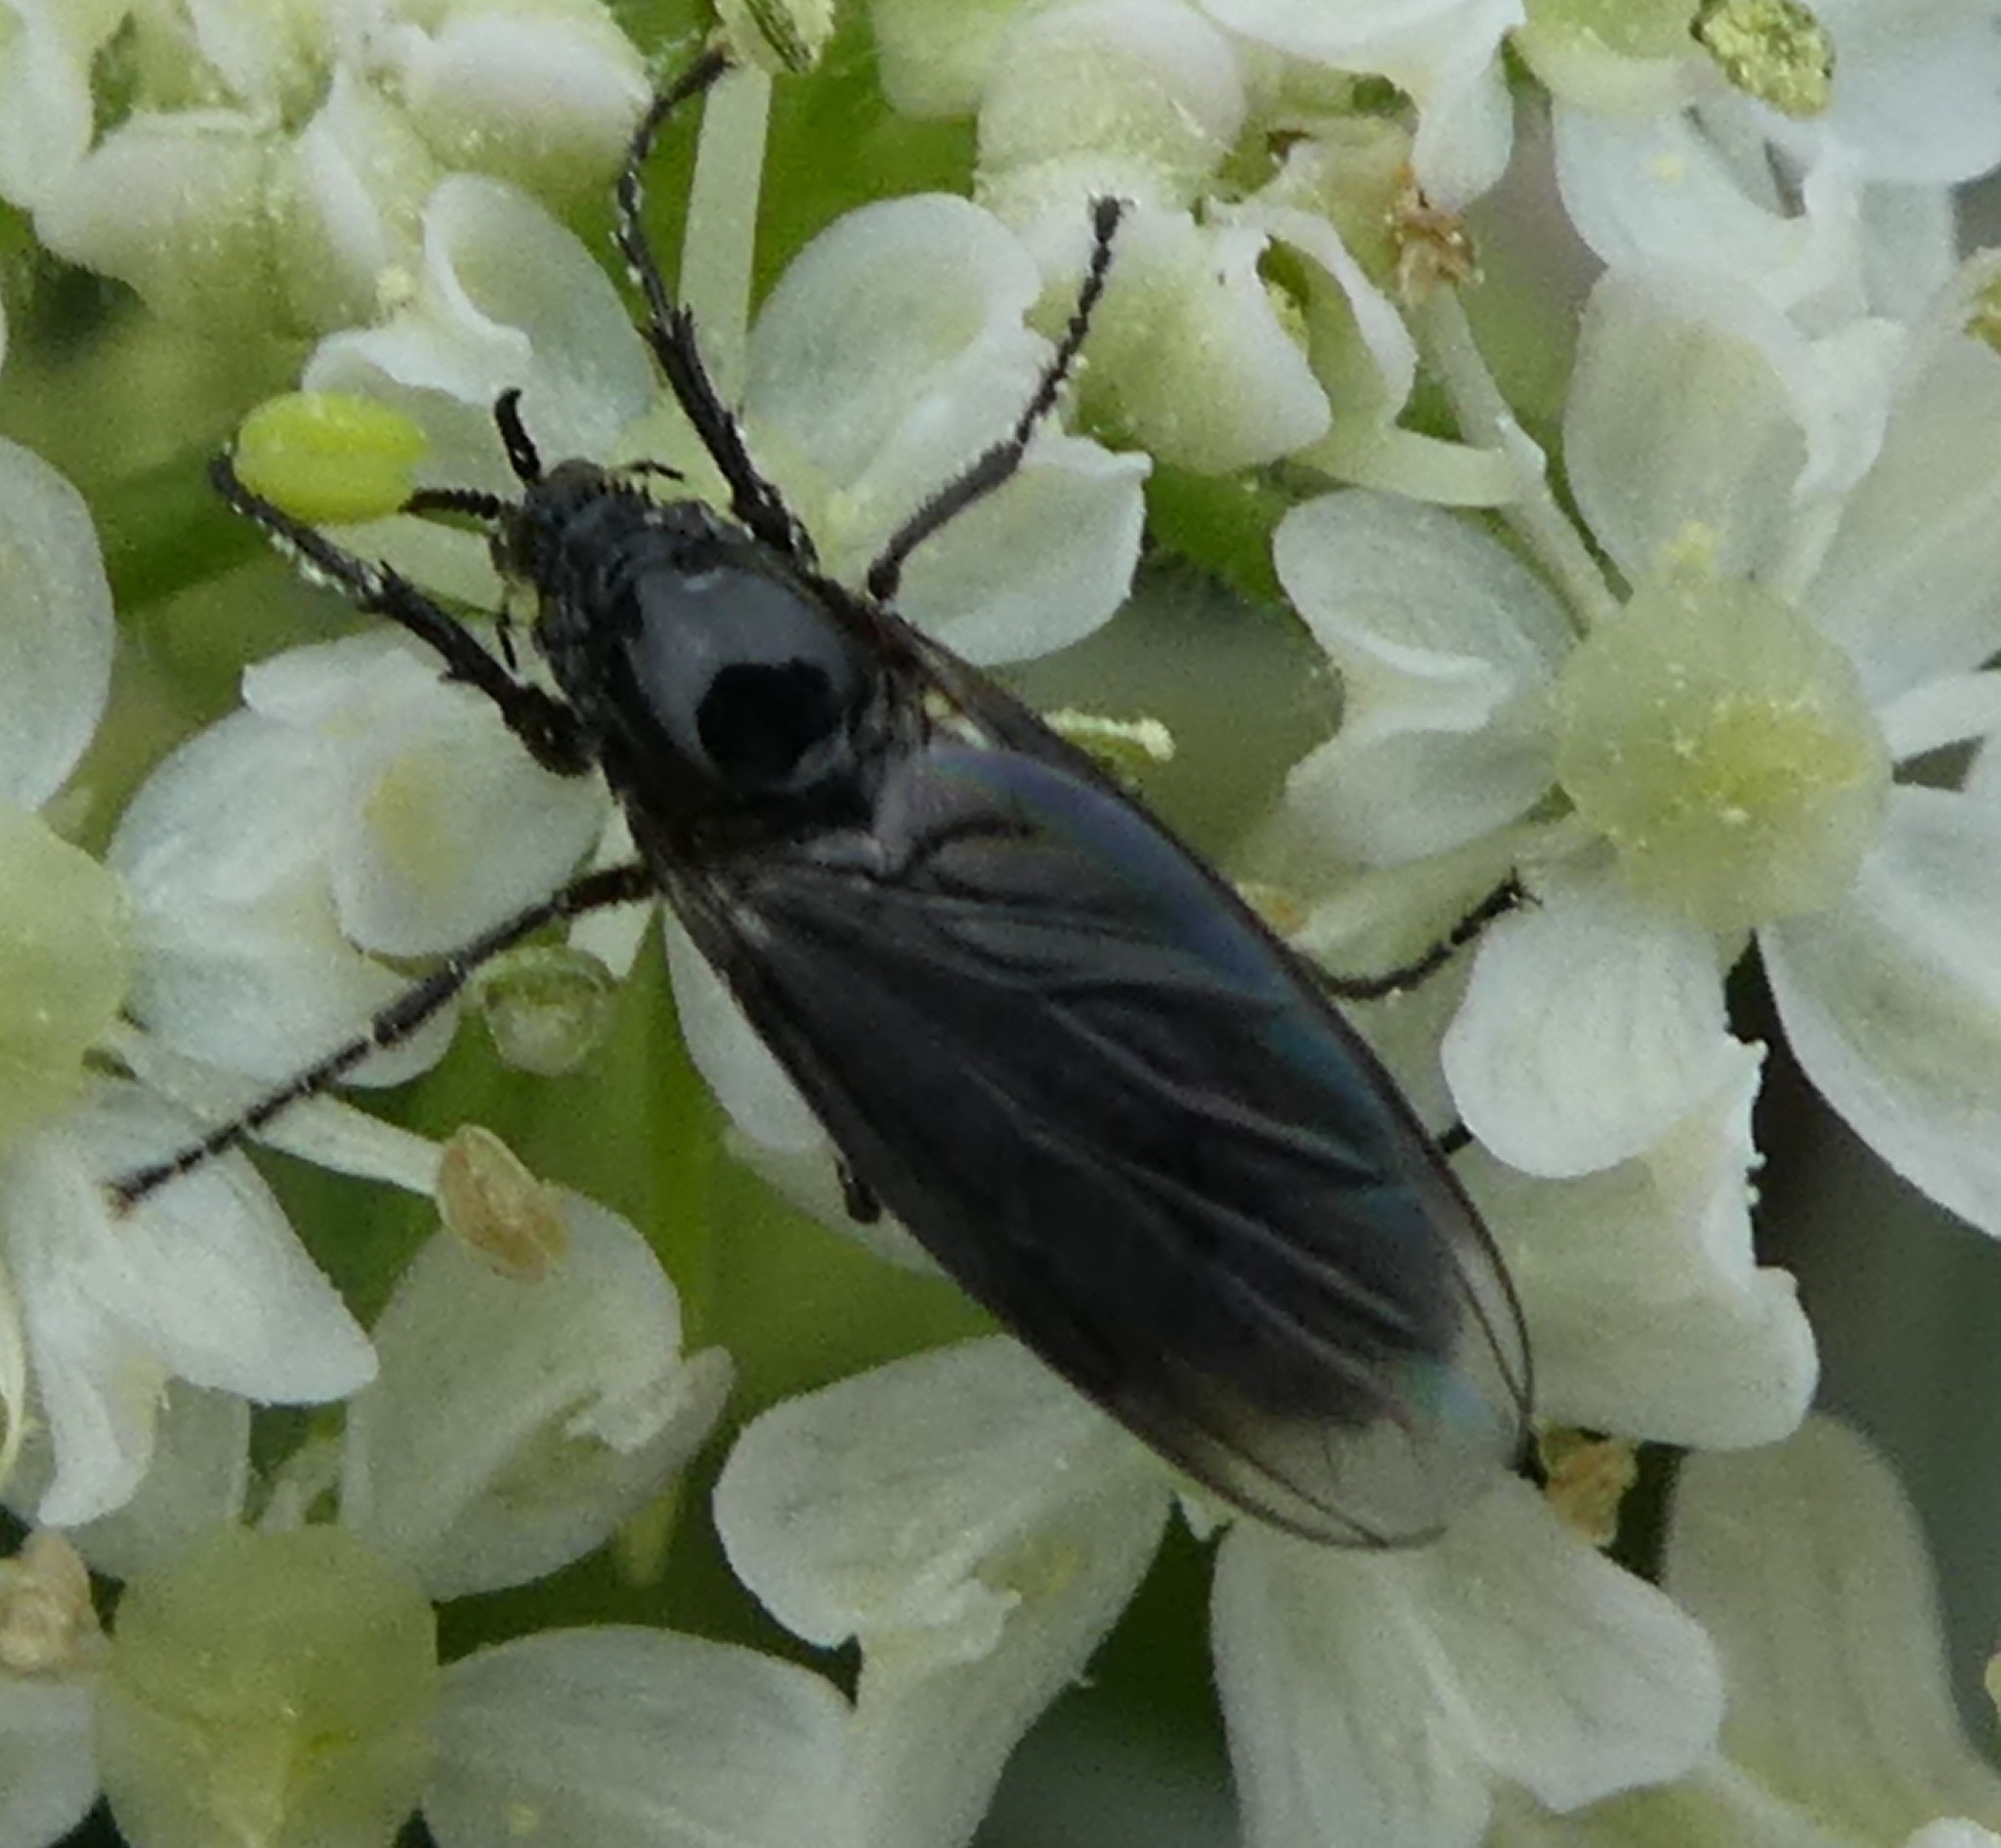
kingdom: Animalia
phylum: Arthropoda
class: Insecta
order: Diptera
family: Bibionidae
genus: Dilophus
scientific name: Dilophus febrilis
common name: Fever fly
